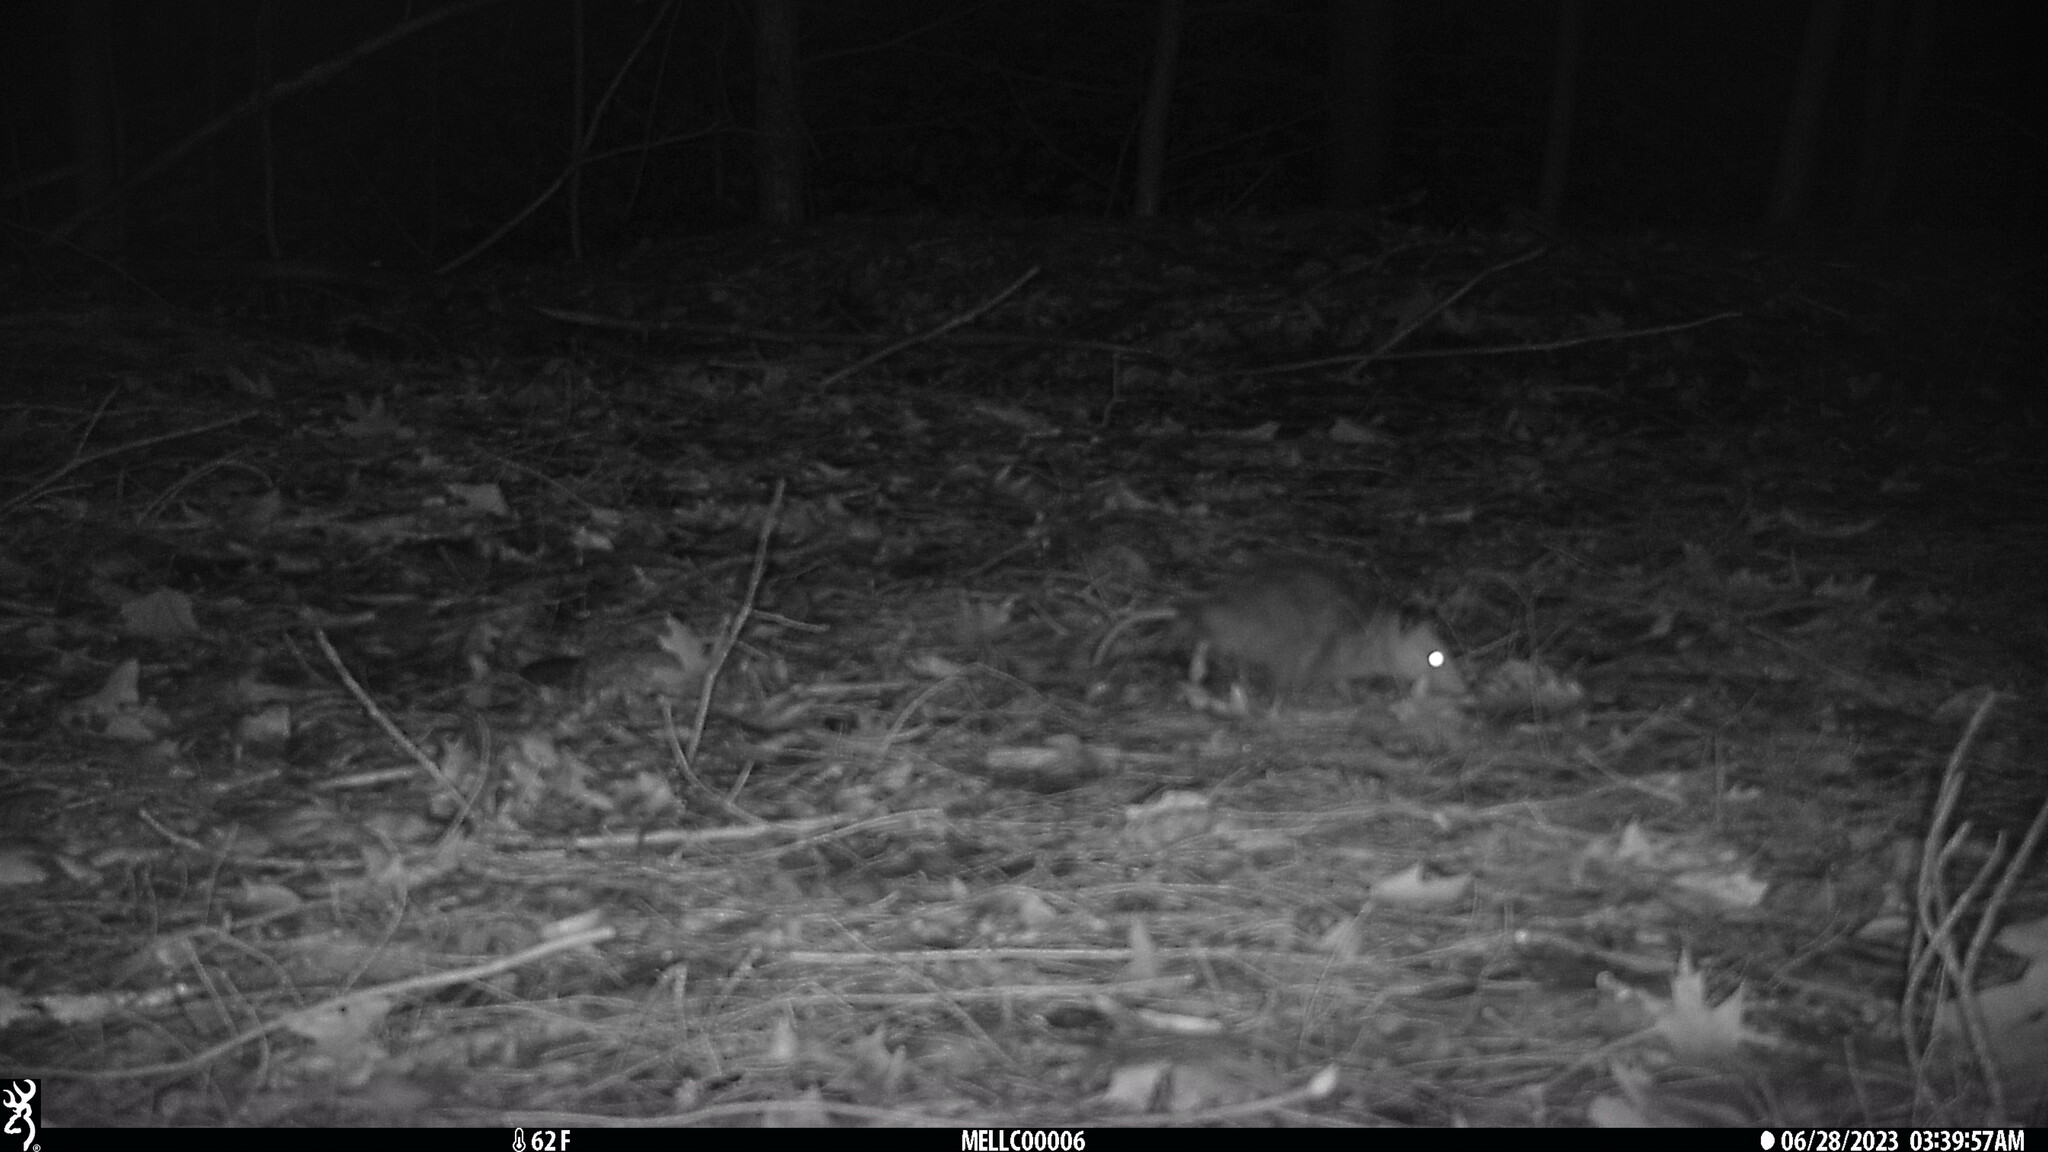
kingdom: Animalia
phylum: Chordata
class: Mammalia
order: Didelphimorphia
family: Didelphidae
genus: Didelphis
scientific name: Didelphis virginiana
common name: Virginia opossum
